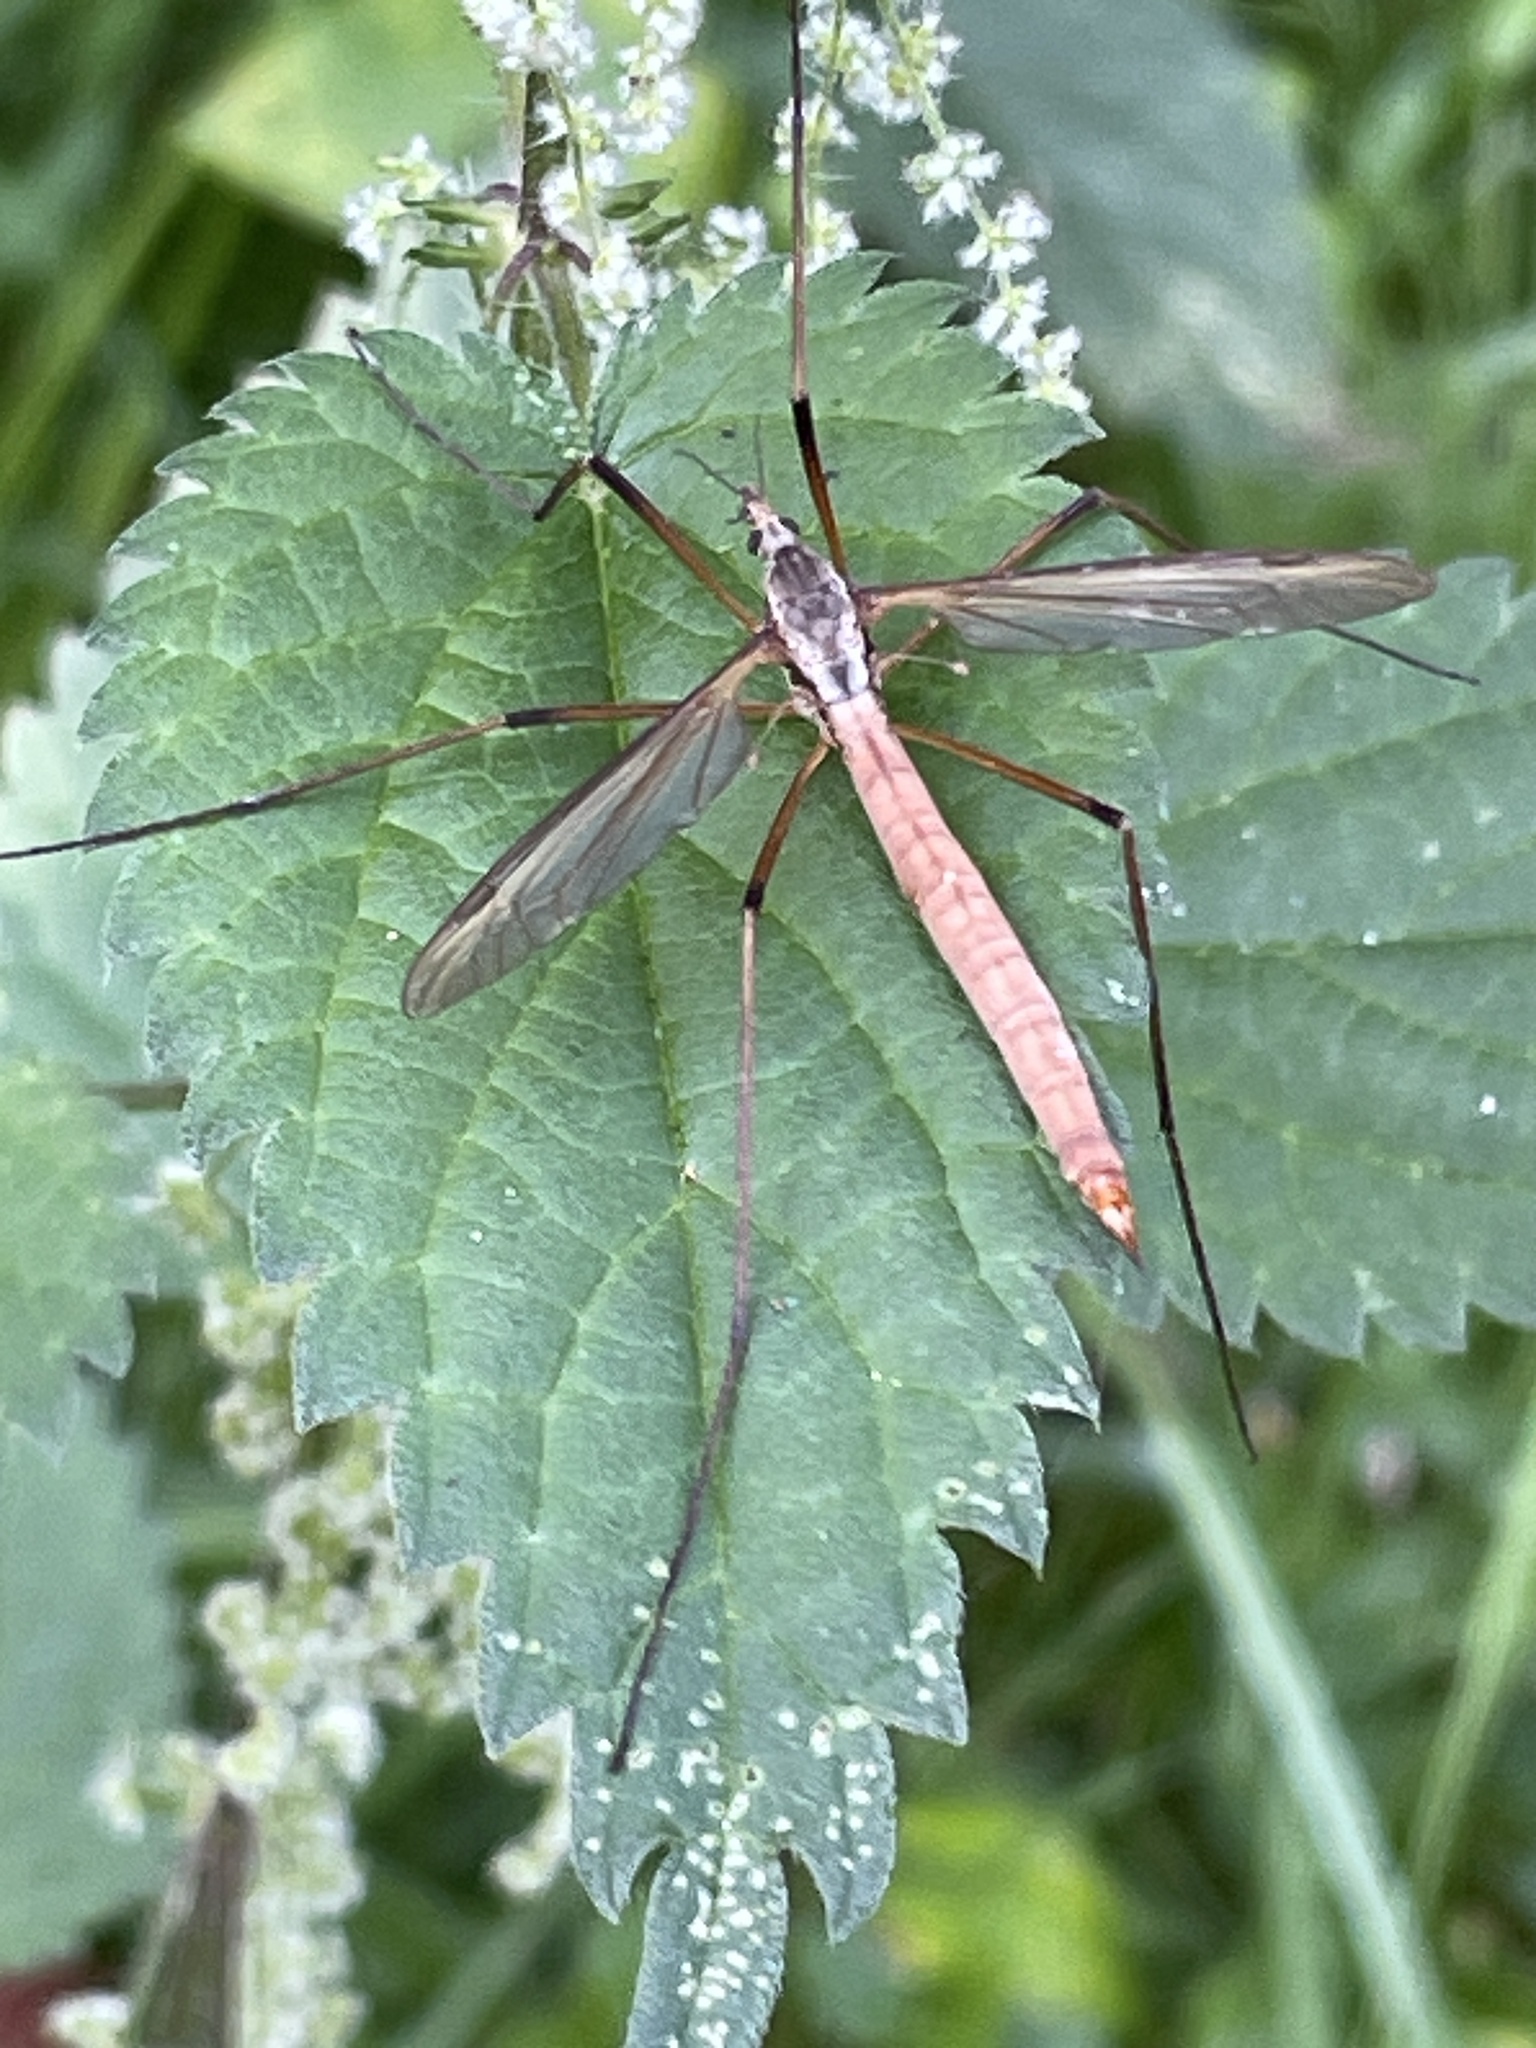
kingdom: Animalia
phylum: Arthropoda
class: Insecta
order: Diptera
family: Tipulidae
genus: Tipula
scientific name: Tipula paludosa
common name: European cranefly
